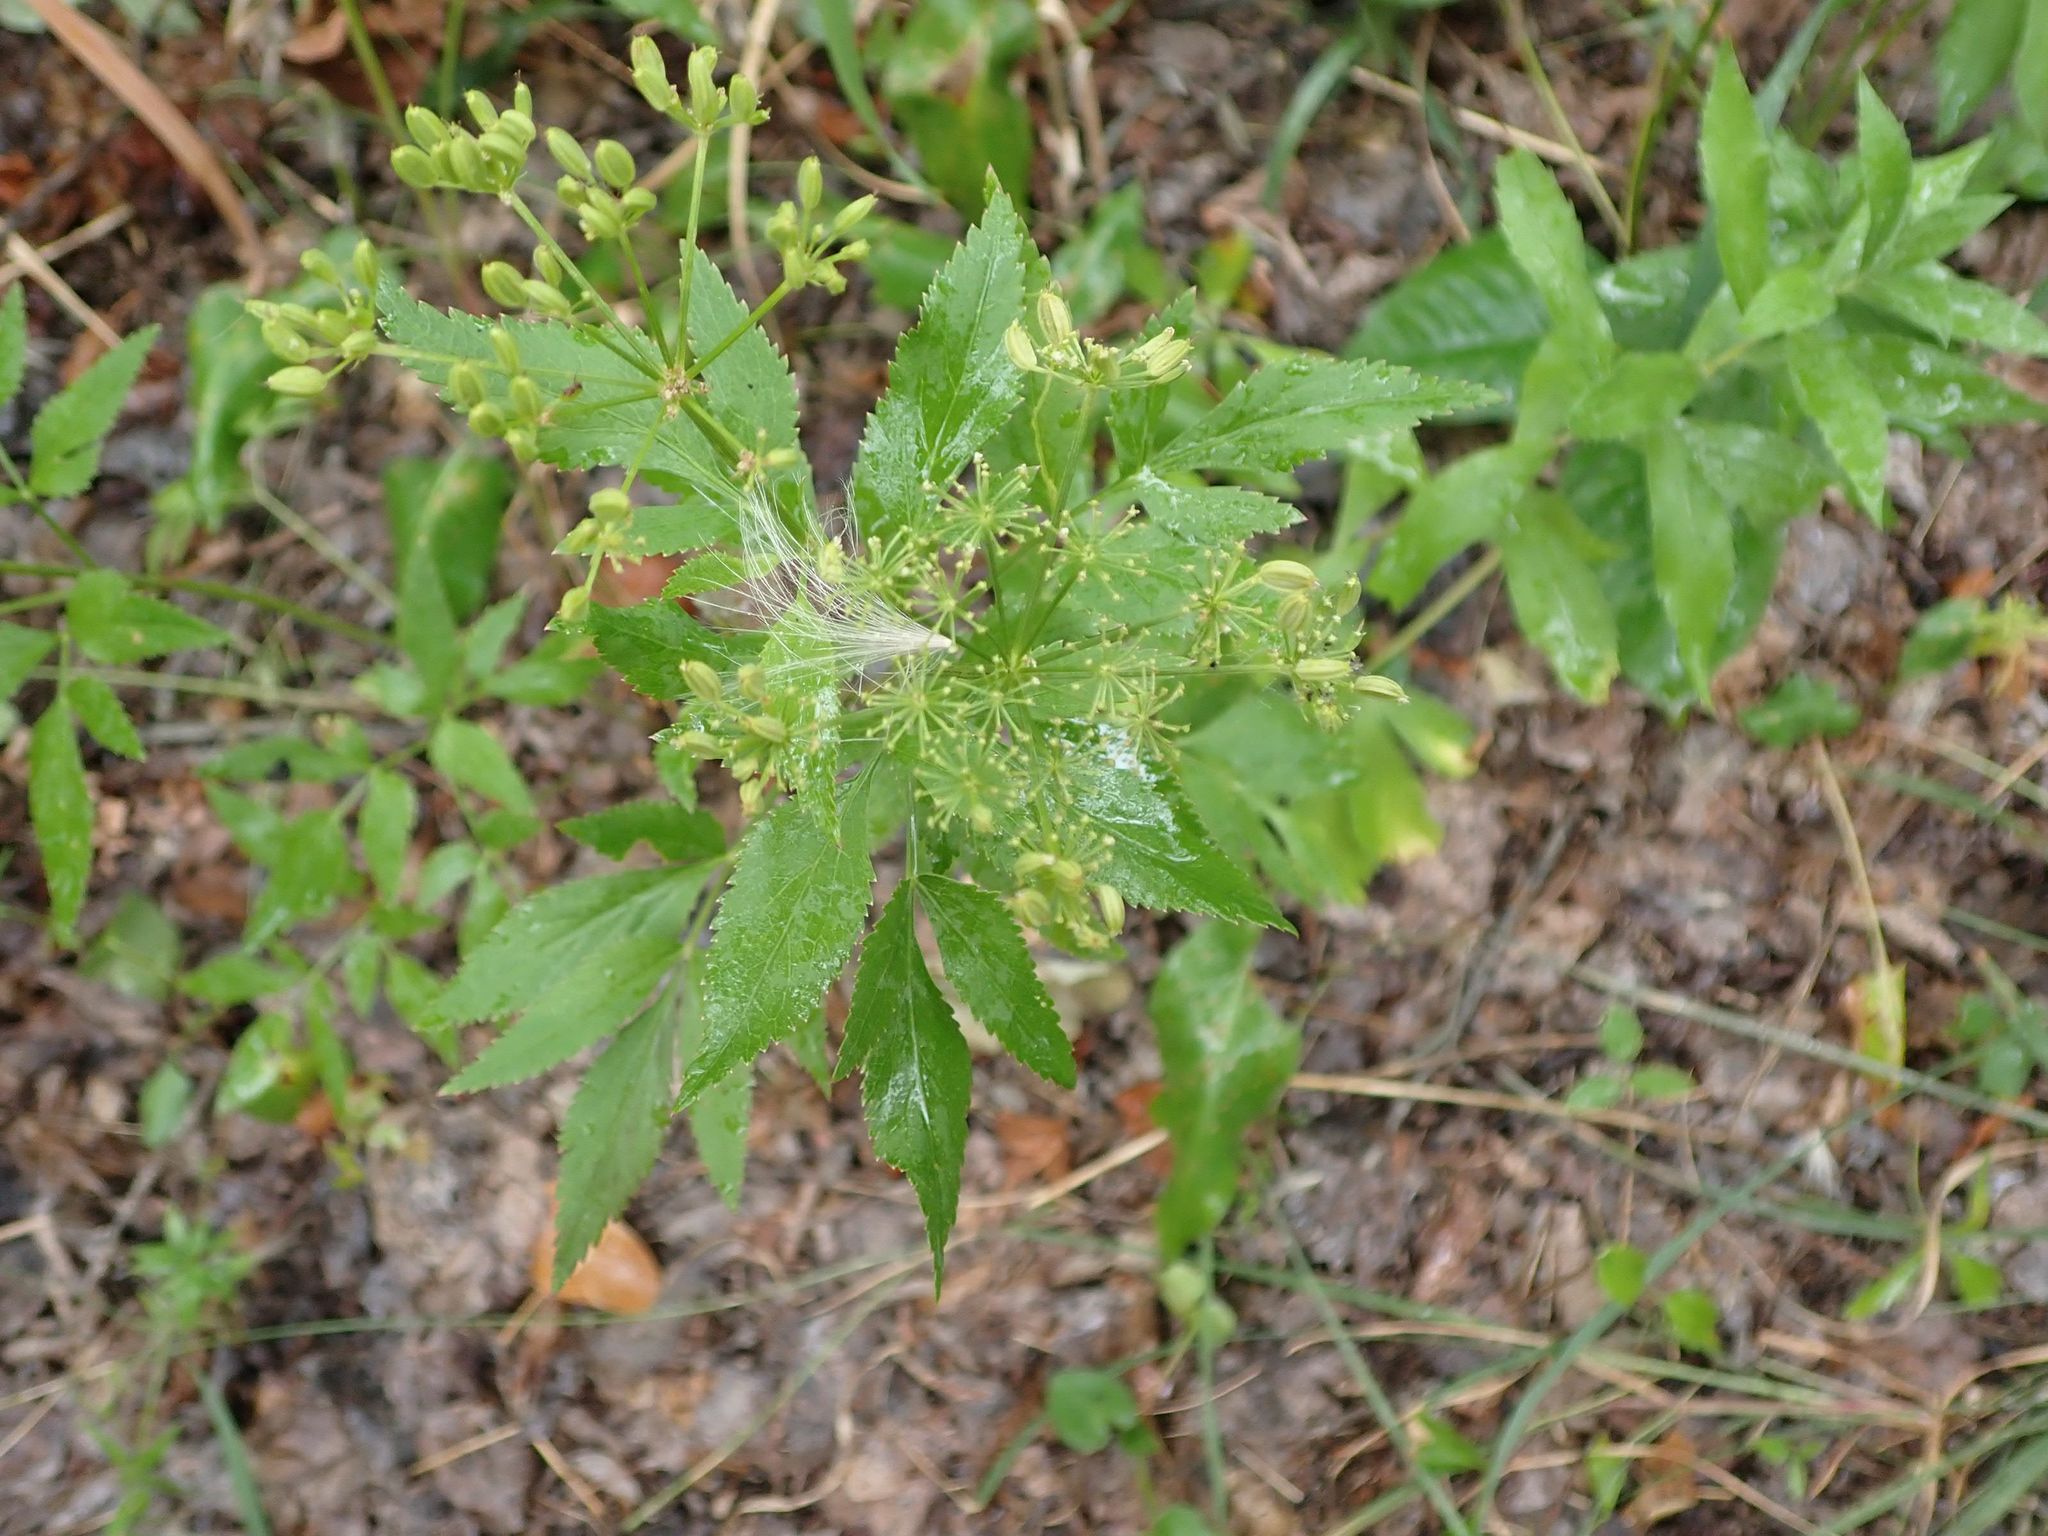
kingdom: Plantae
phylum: Tracheophyta
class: Magnoliopsida
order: Apiales
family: Apiaceae
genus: Zizia
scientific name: Zizia aurea
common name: Golden alexanders
